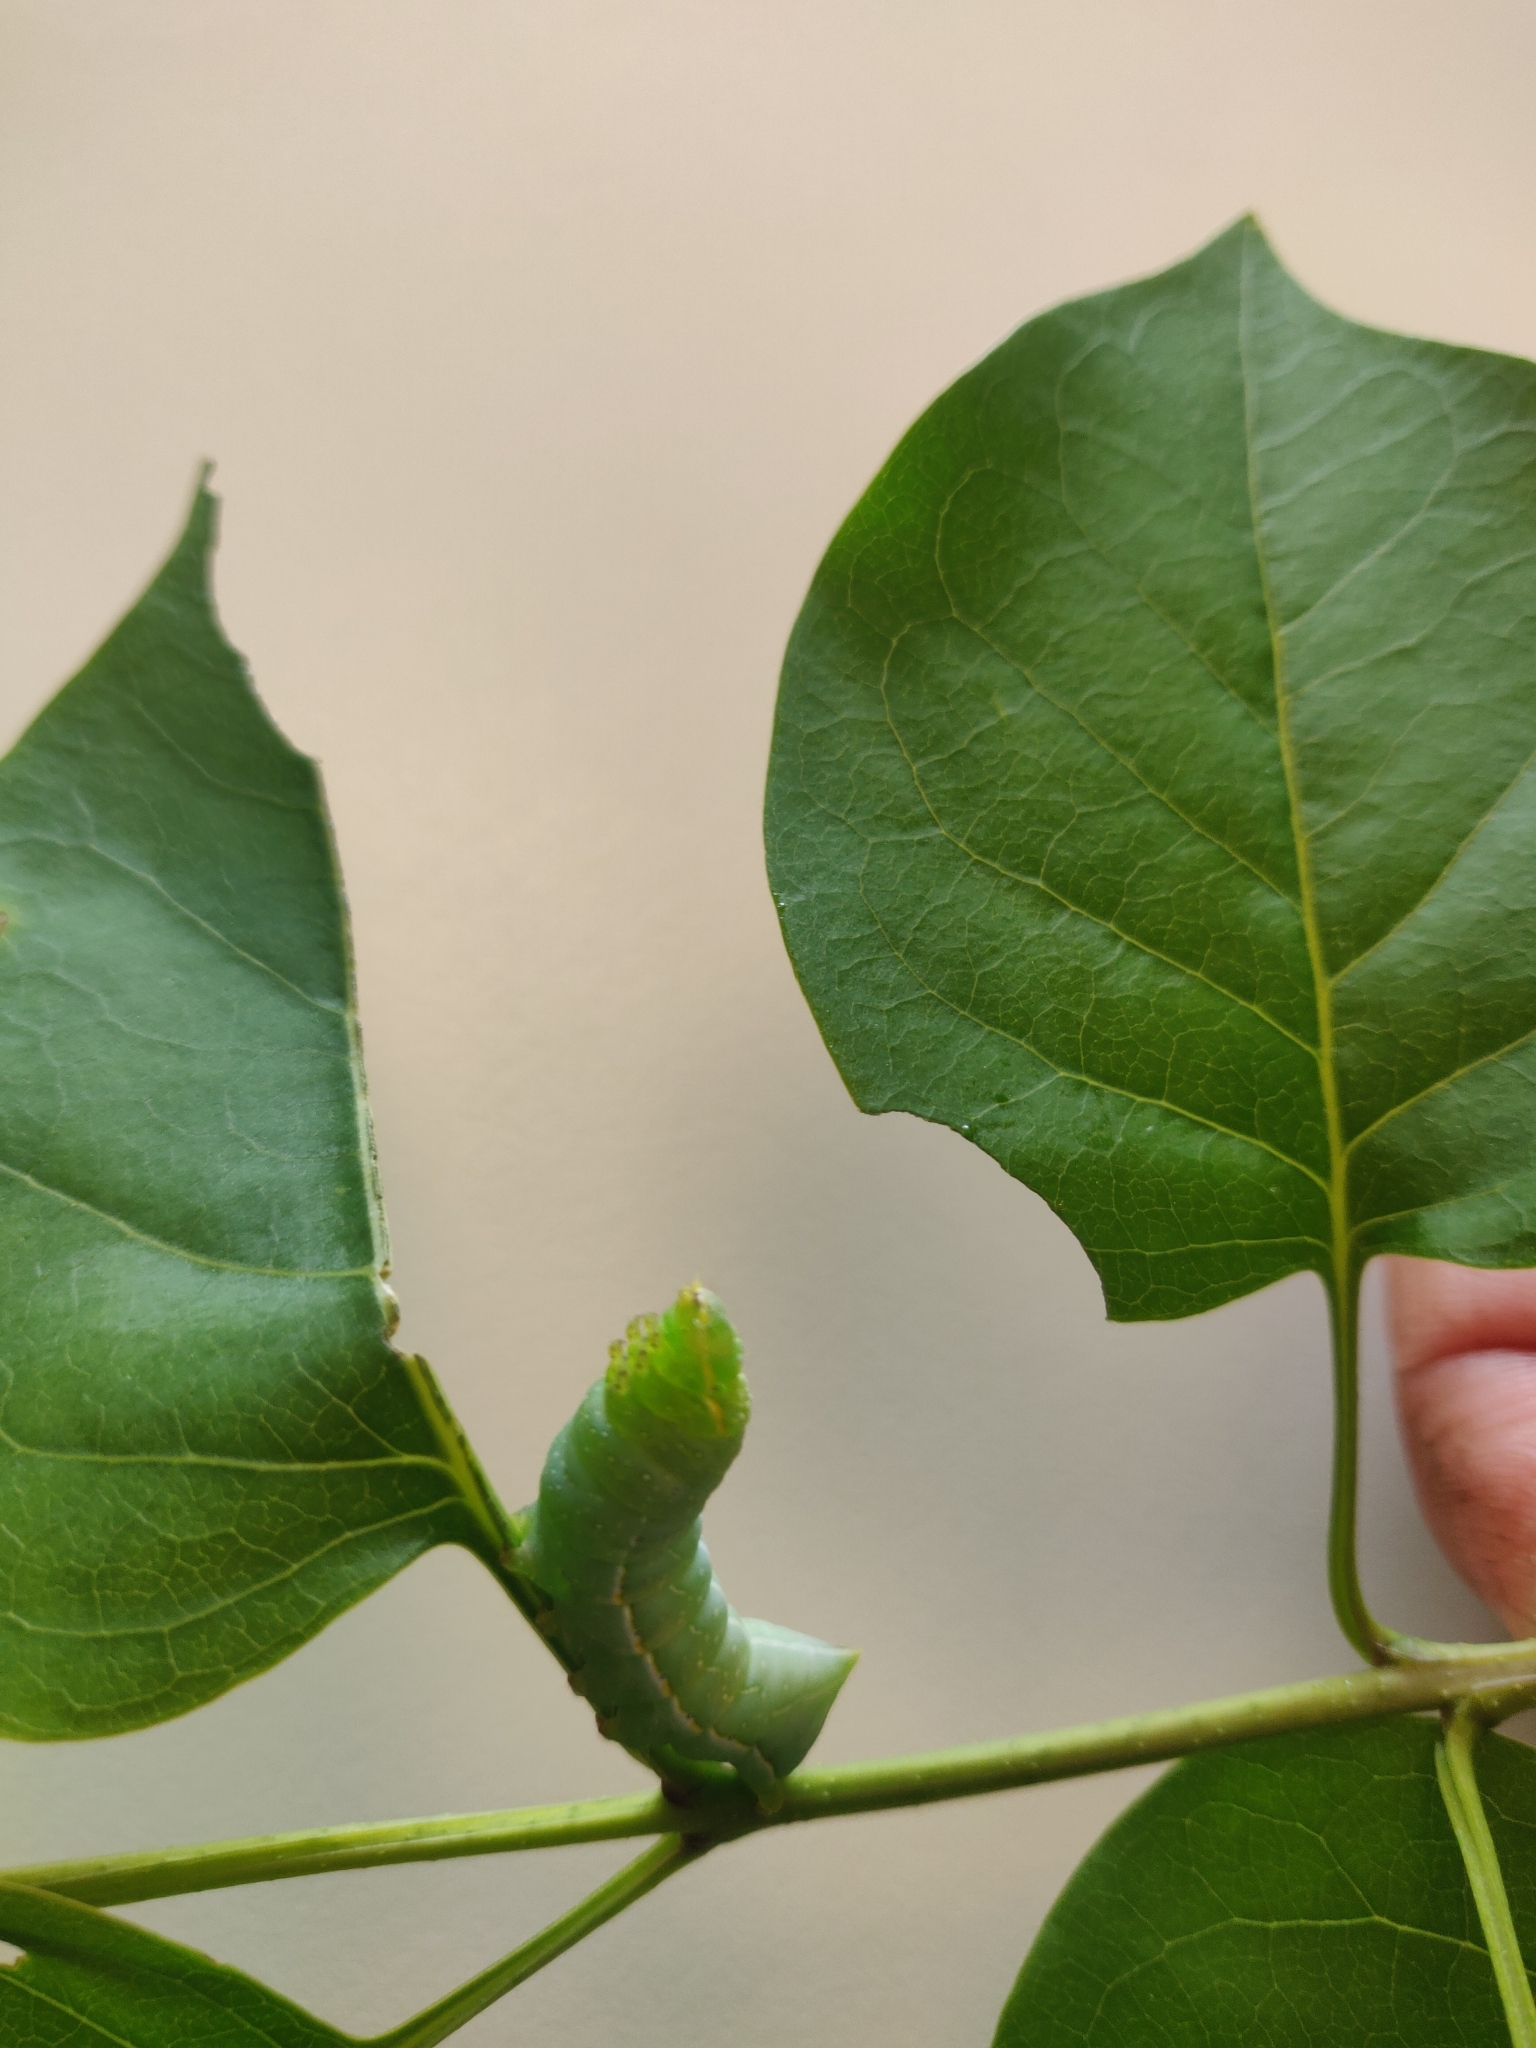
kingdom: Animalia
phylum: Arthropoda
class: Insecta
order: Lepidoptera
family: Noctuidae
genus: Amphipyra
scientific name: Amphipyra pyramidea
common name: Copper underwing
